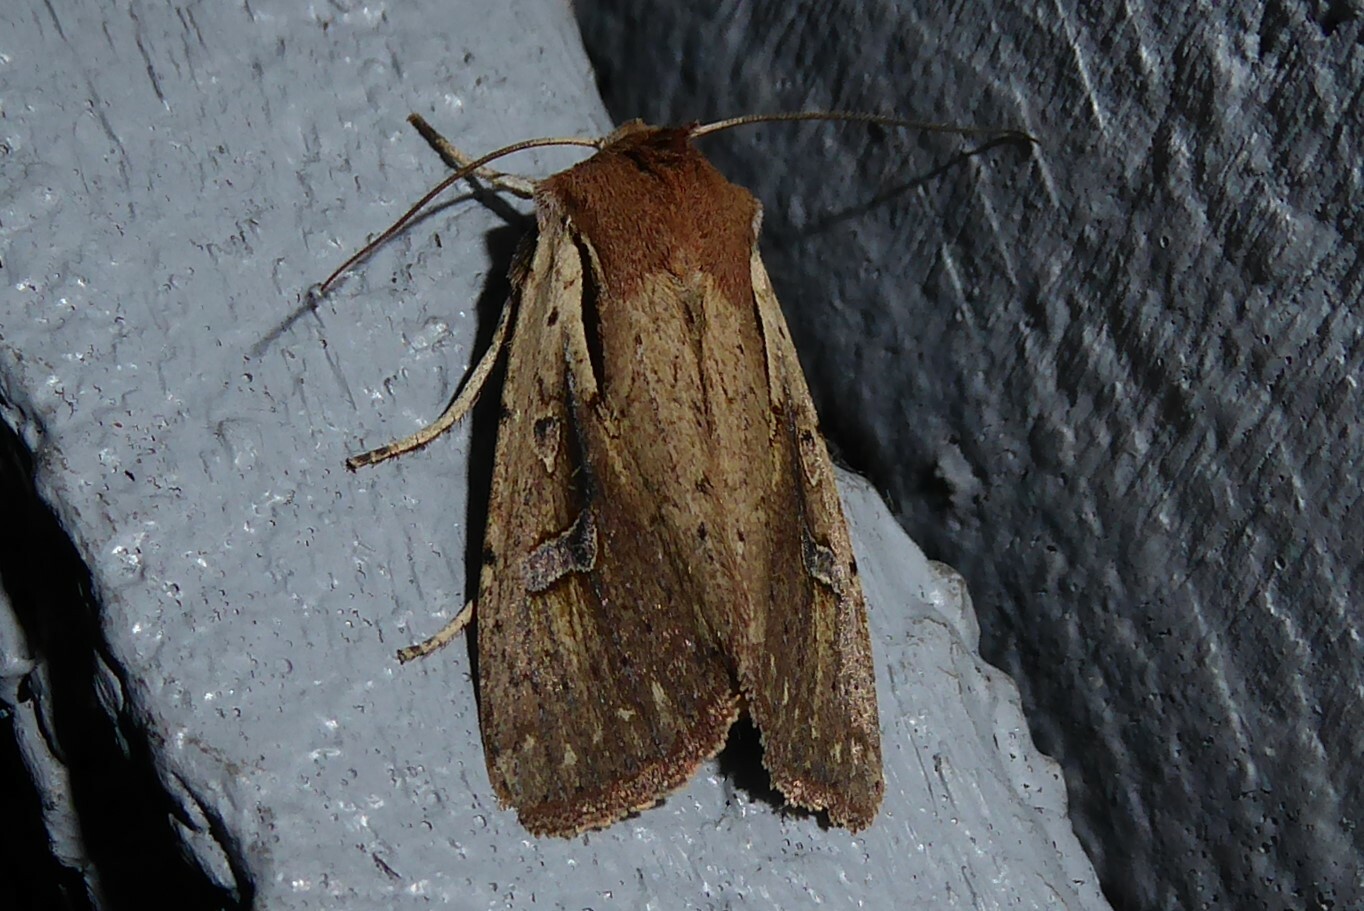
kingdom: Animalia
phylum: Arthropoda
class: Insecta
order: Lepidoptera
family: Noctuidae
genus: Ichneutica
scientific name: Ichneutica atristriga
